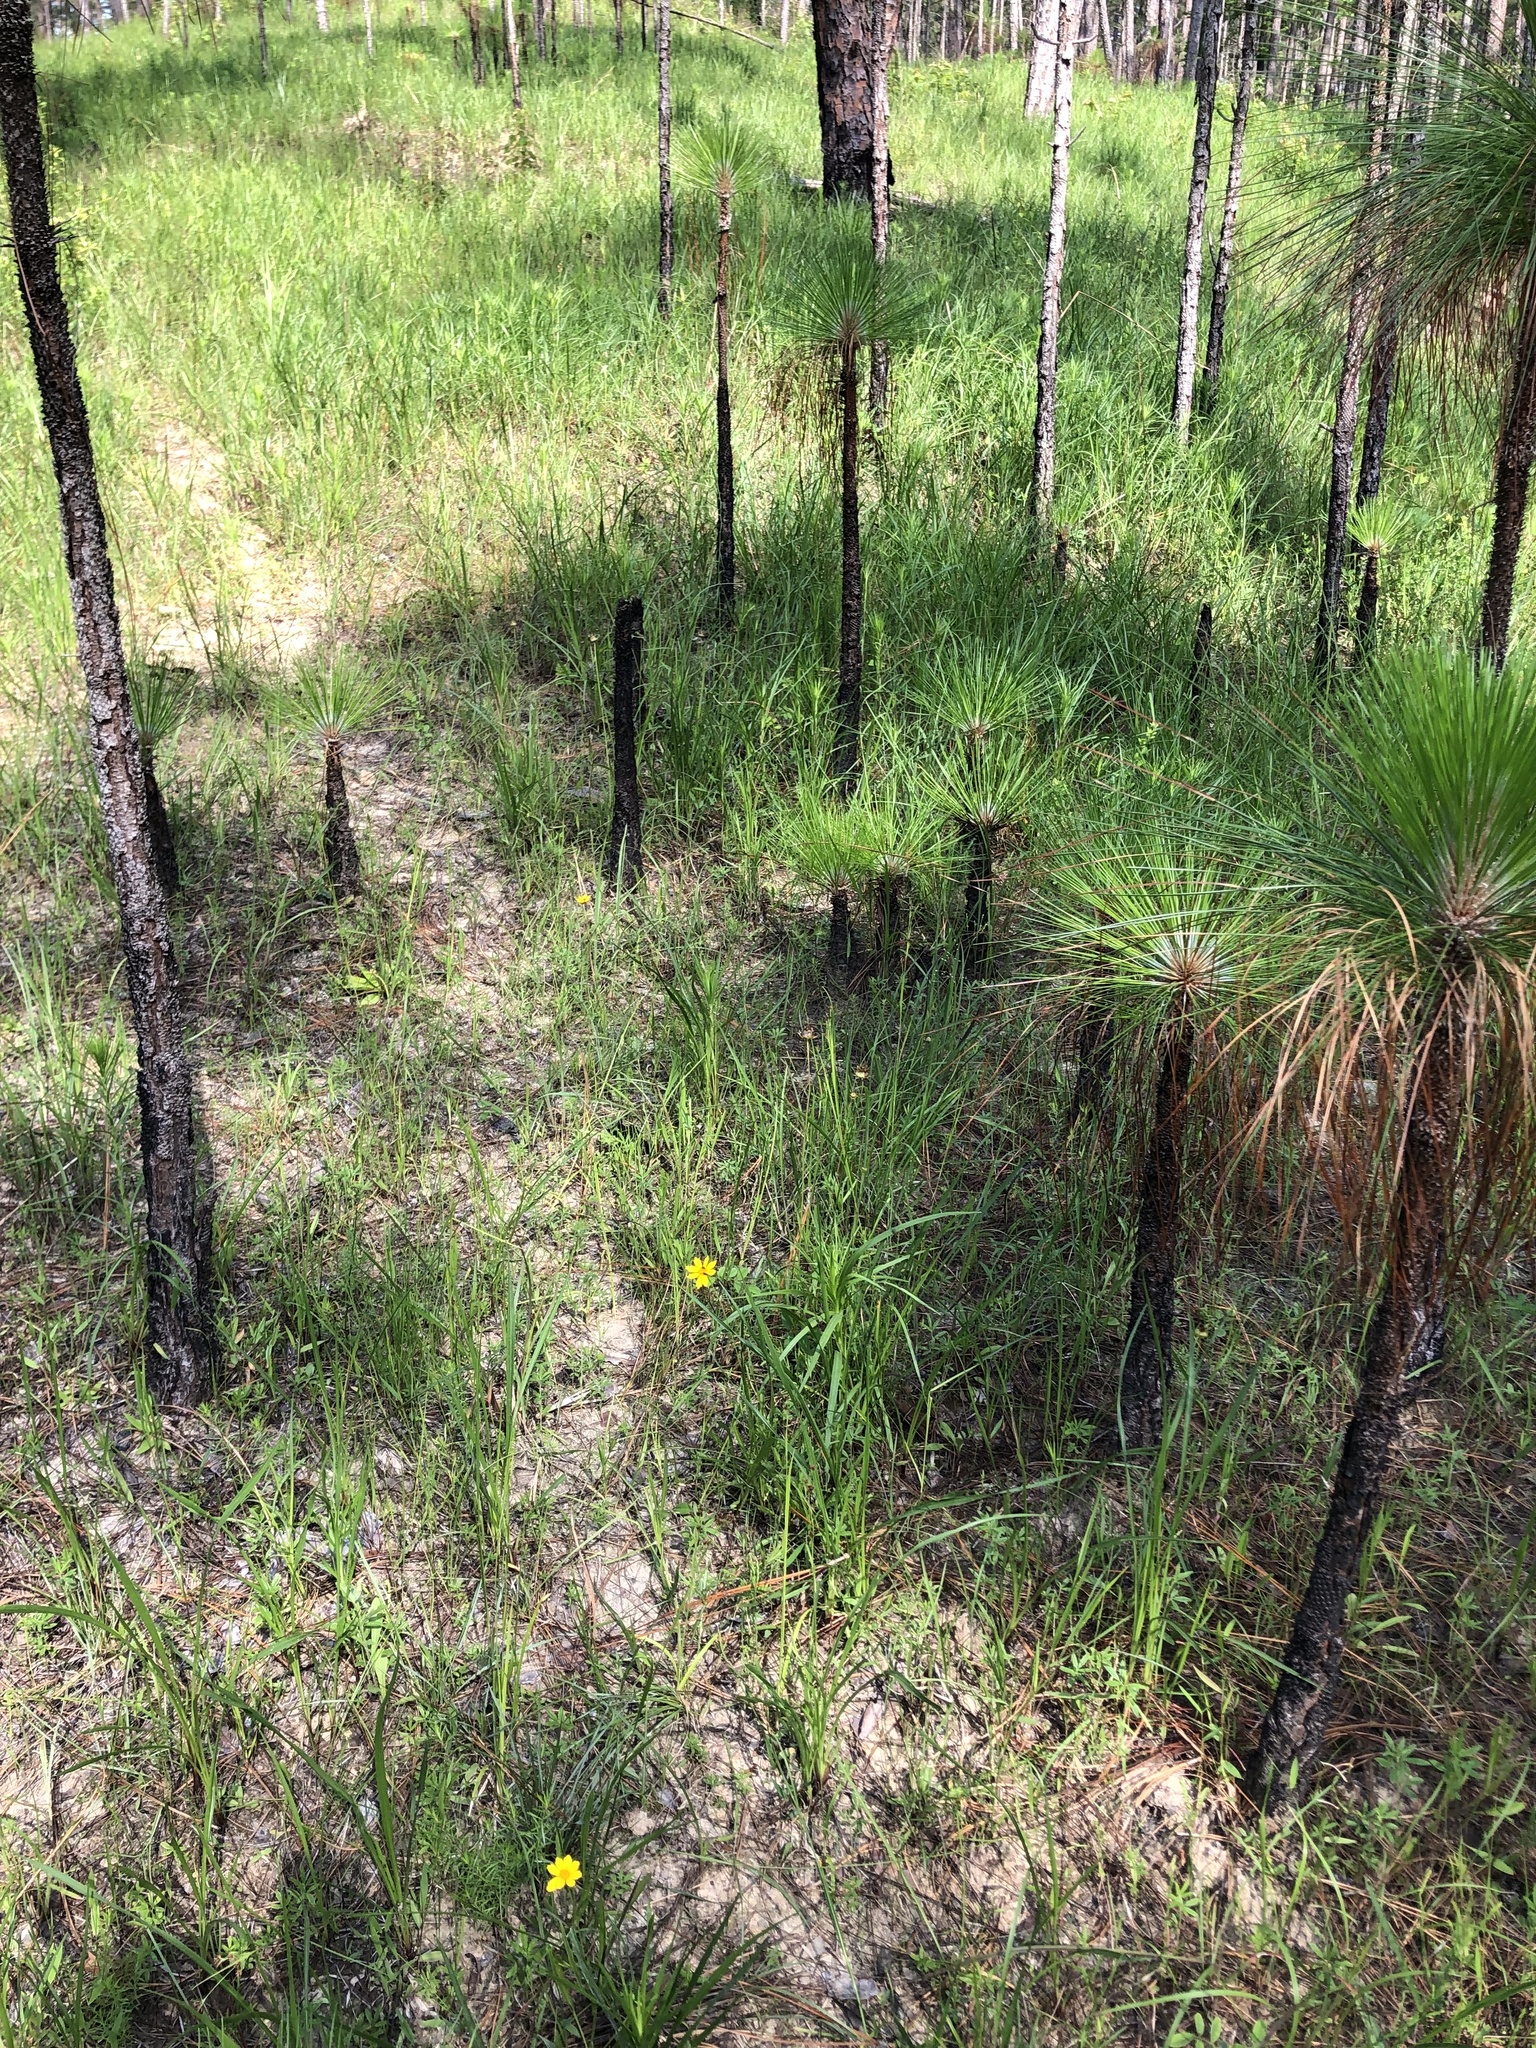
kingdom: Plantae
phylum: Tracheophyta
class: Magnoliopsida
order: Asterales
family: Asteraceae
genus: Coreopsis
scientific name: Coreopsis lanceolata
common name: Garden coreopsis
